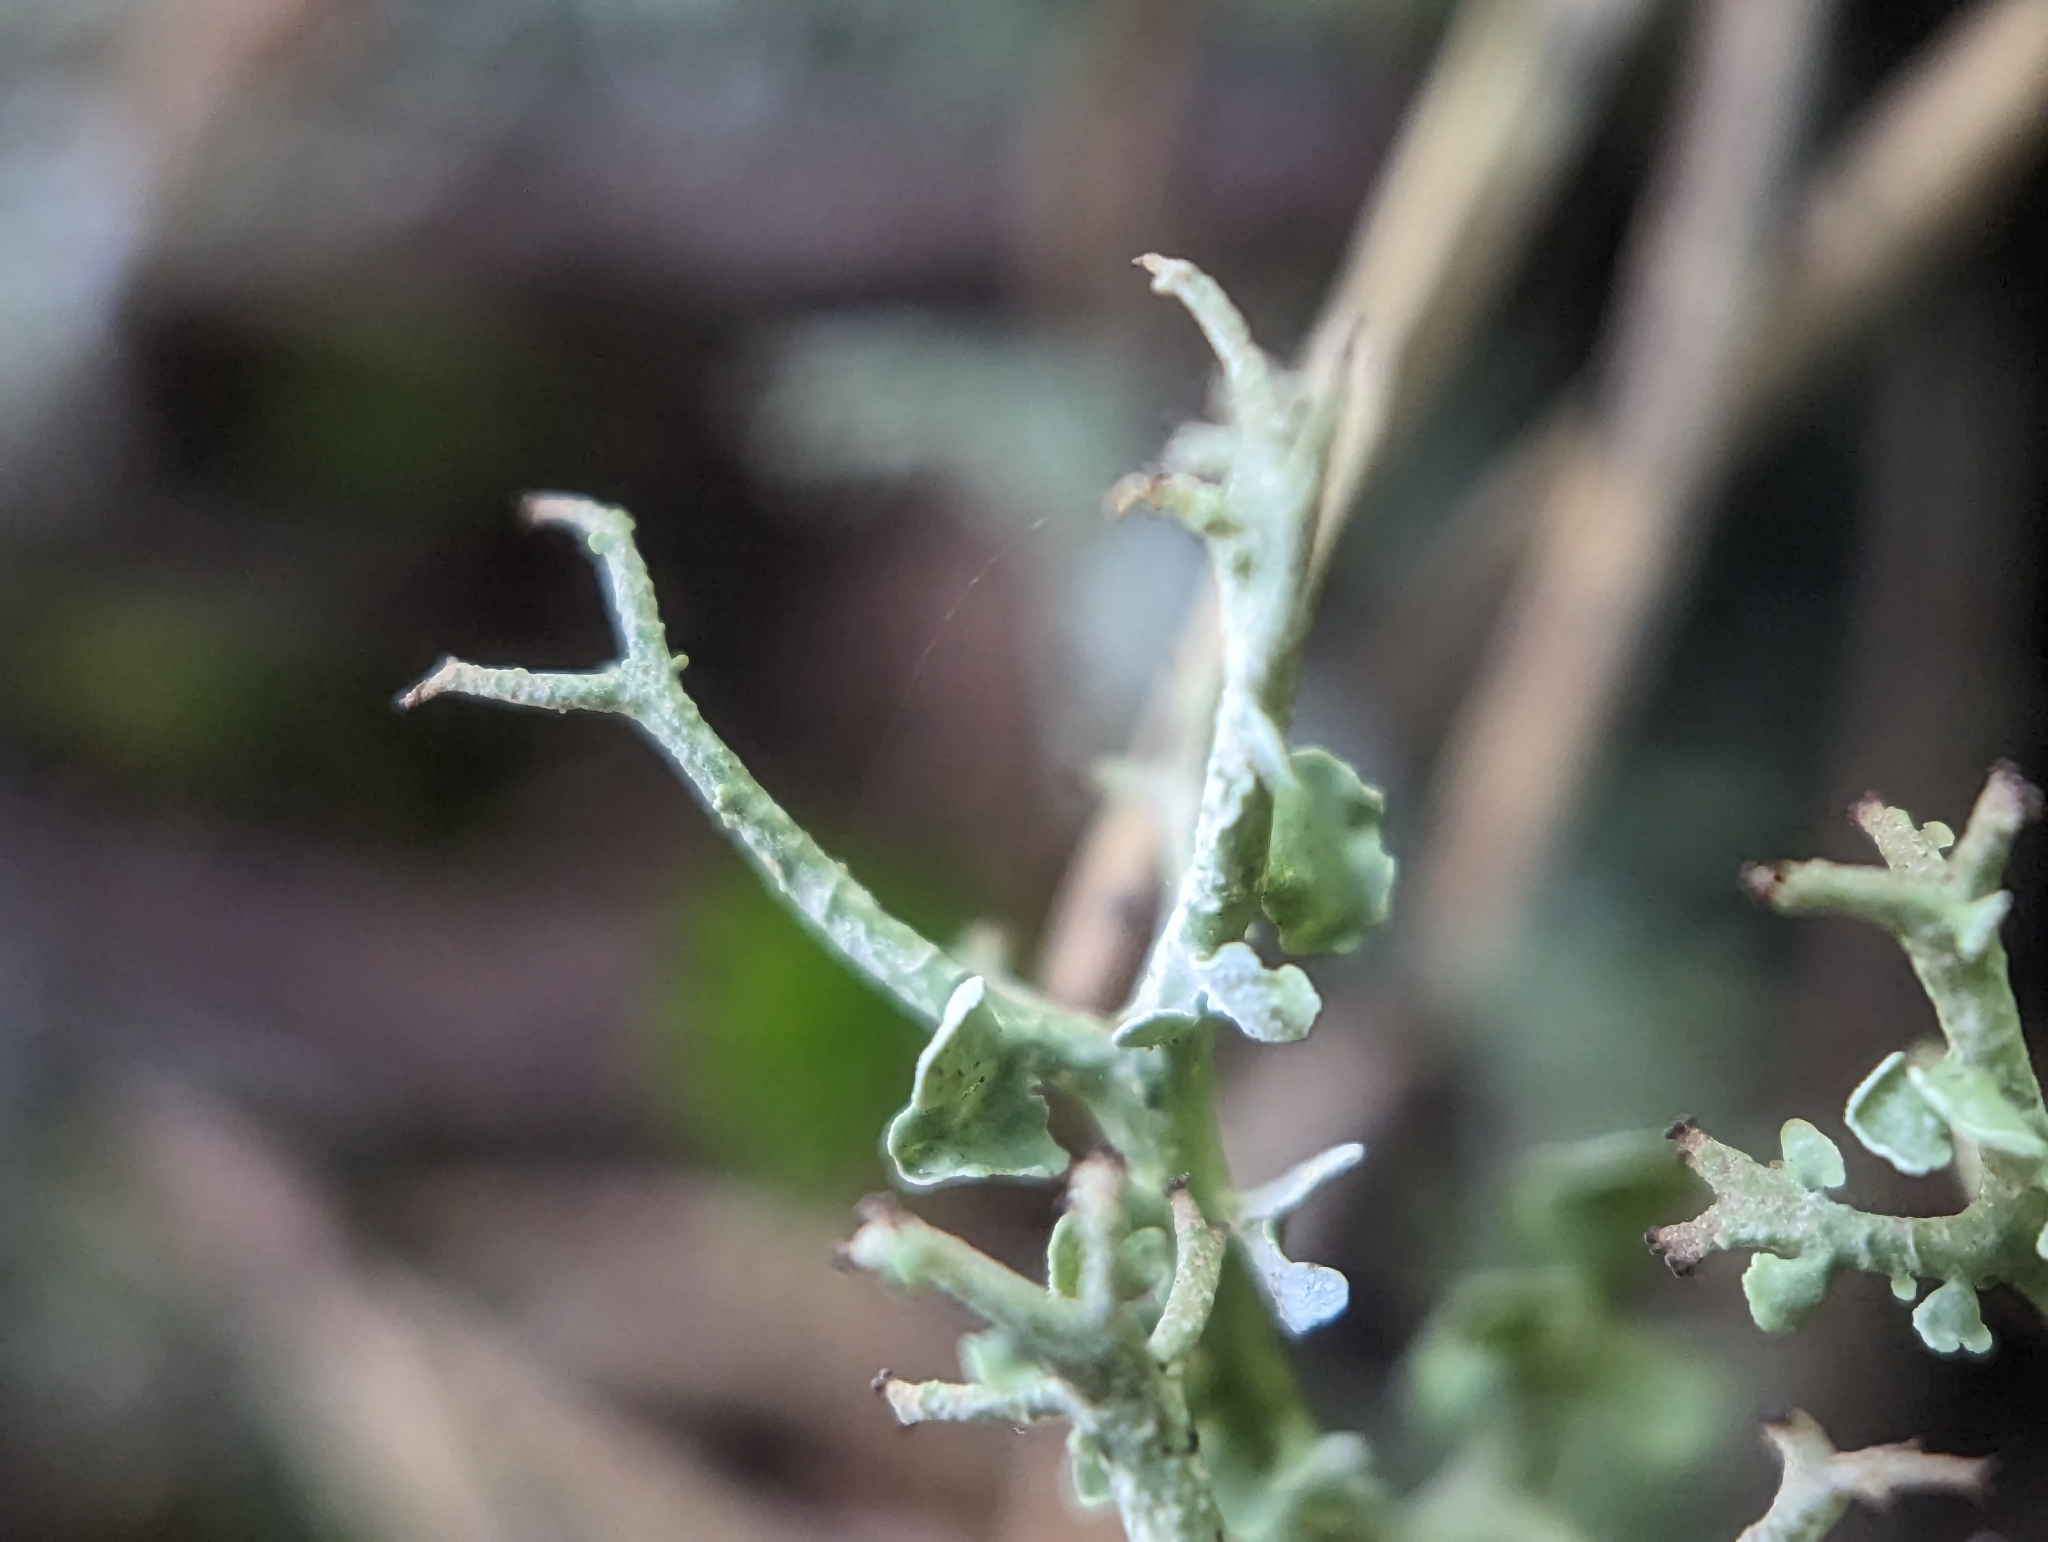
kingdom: Fungi
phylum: Ascomycota
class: Lecanoromycetes
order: Lecanorales
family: Cladoniaceae
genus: Cladonia
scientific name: Cladonia furcata
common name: Many-forked cladonia
